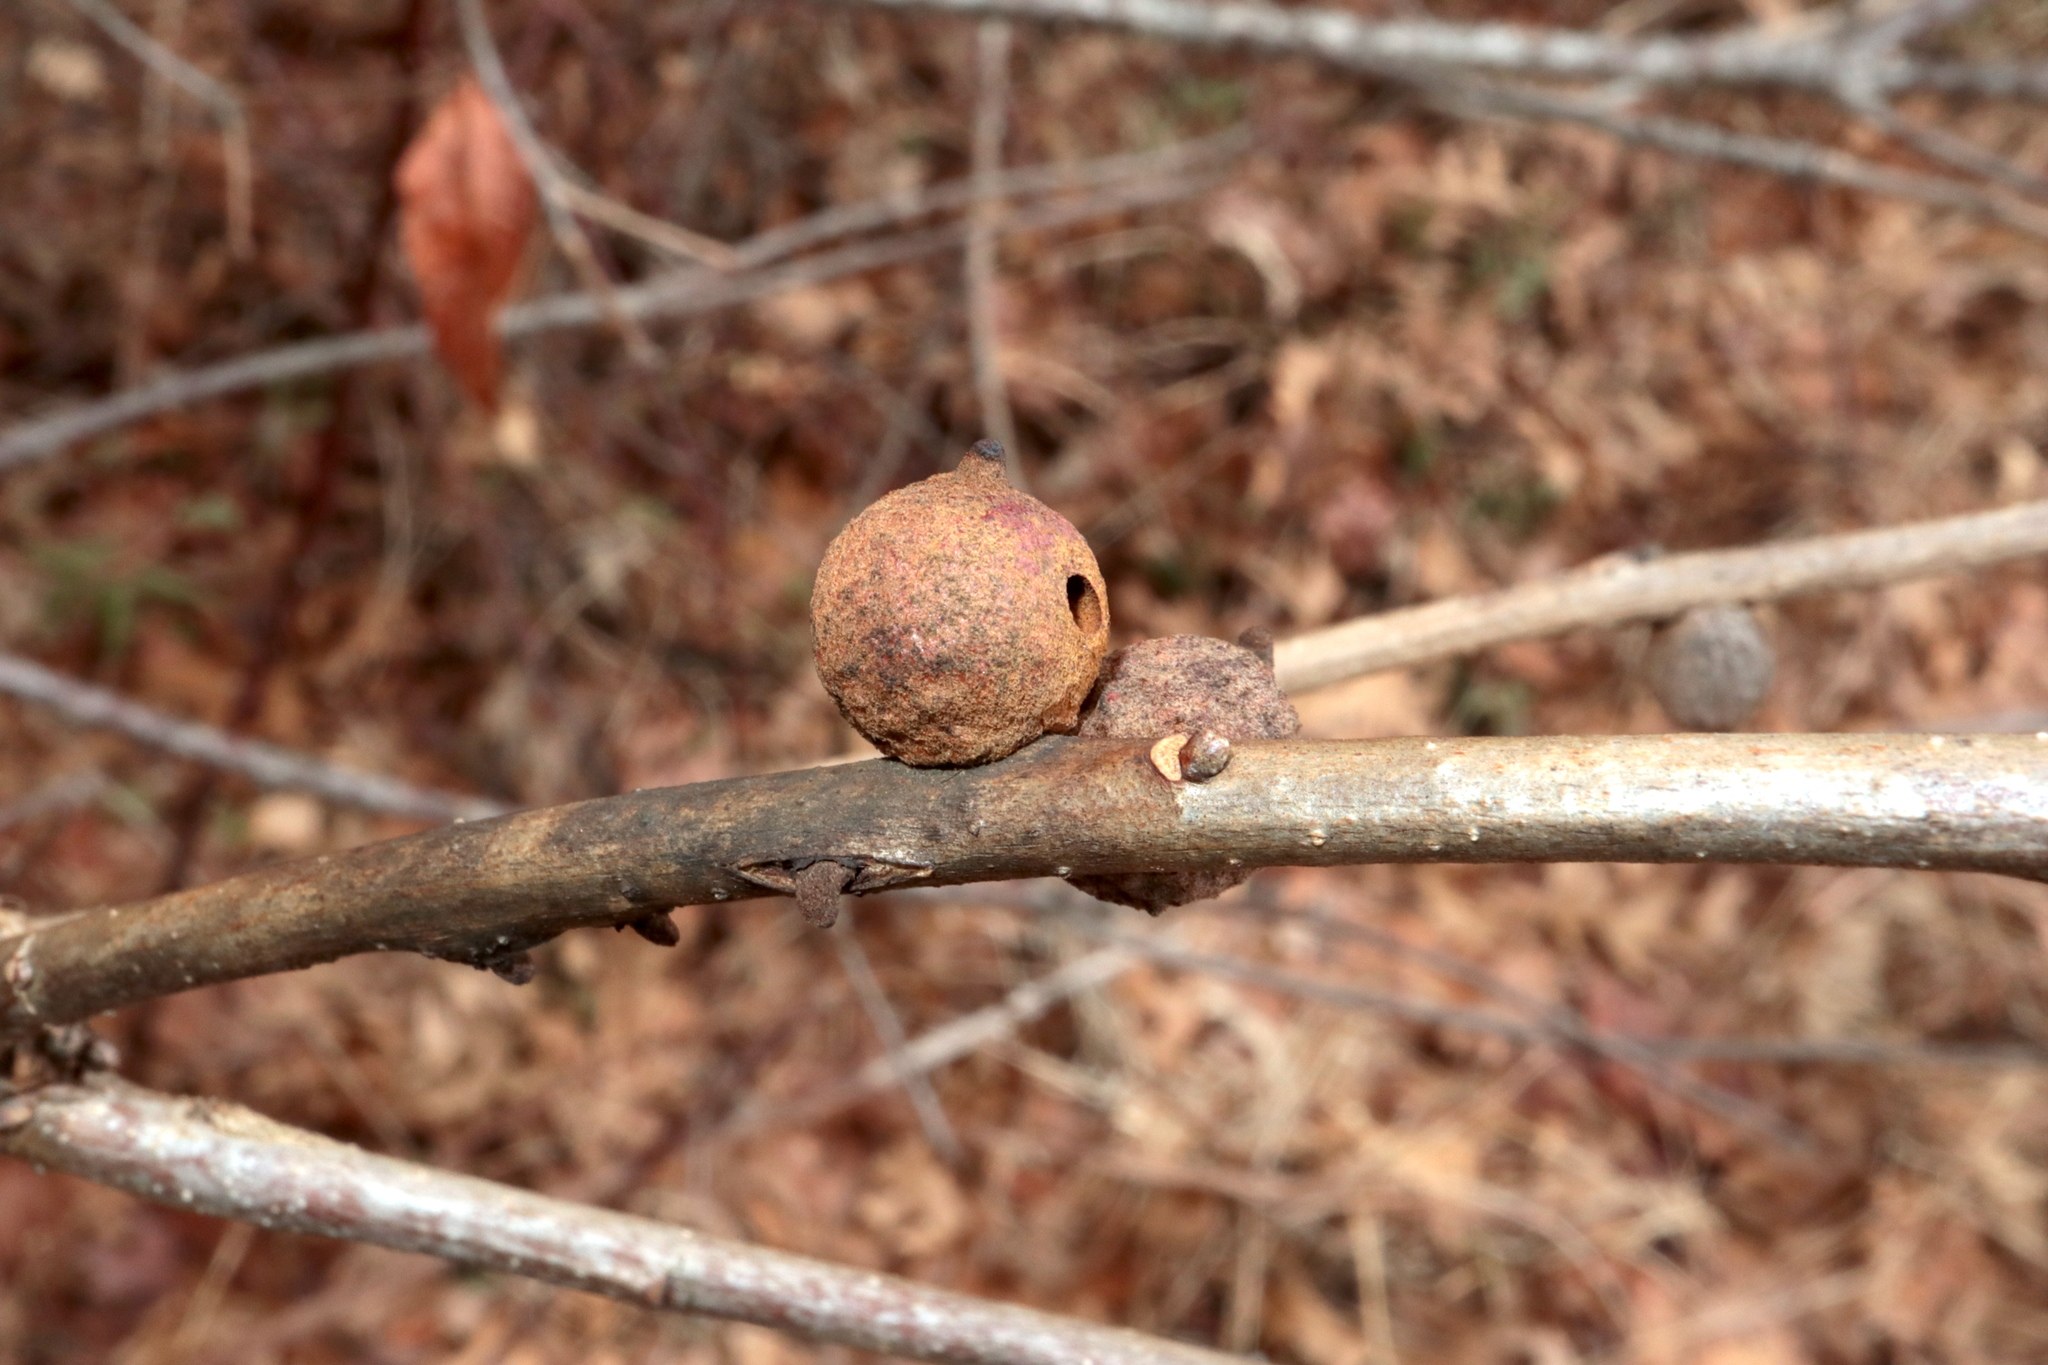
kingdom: Animalia
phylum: Arthropoda
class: Insecta
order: Hymenoptera
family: Cynipidae
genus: Disholcaspis
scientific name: Disholcaspis
